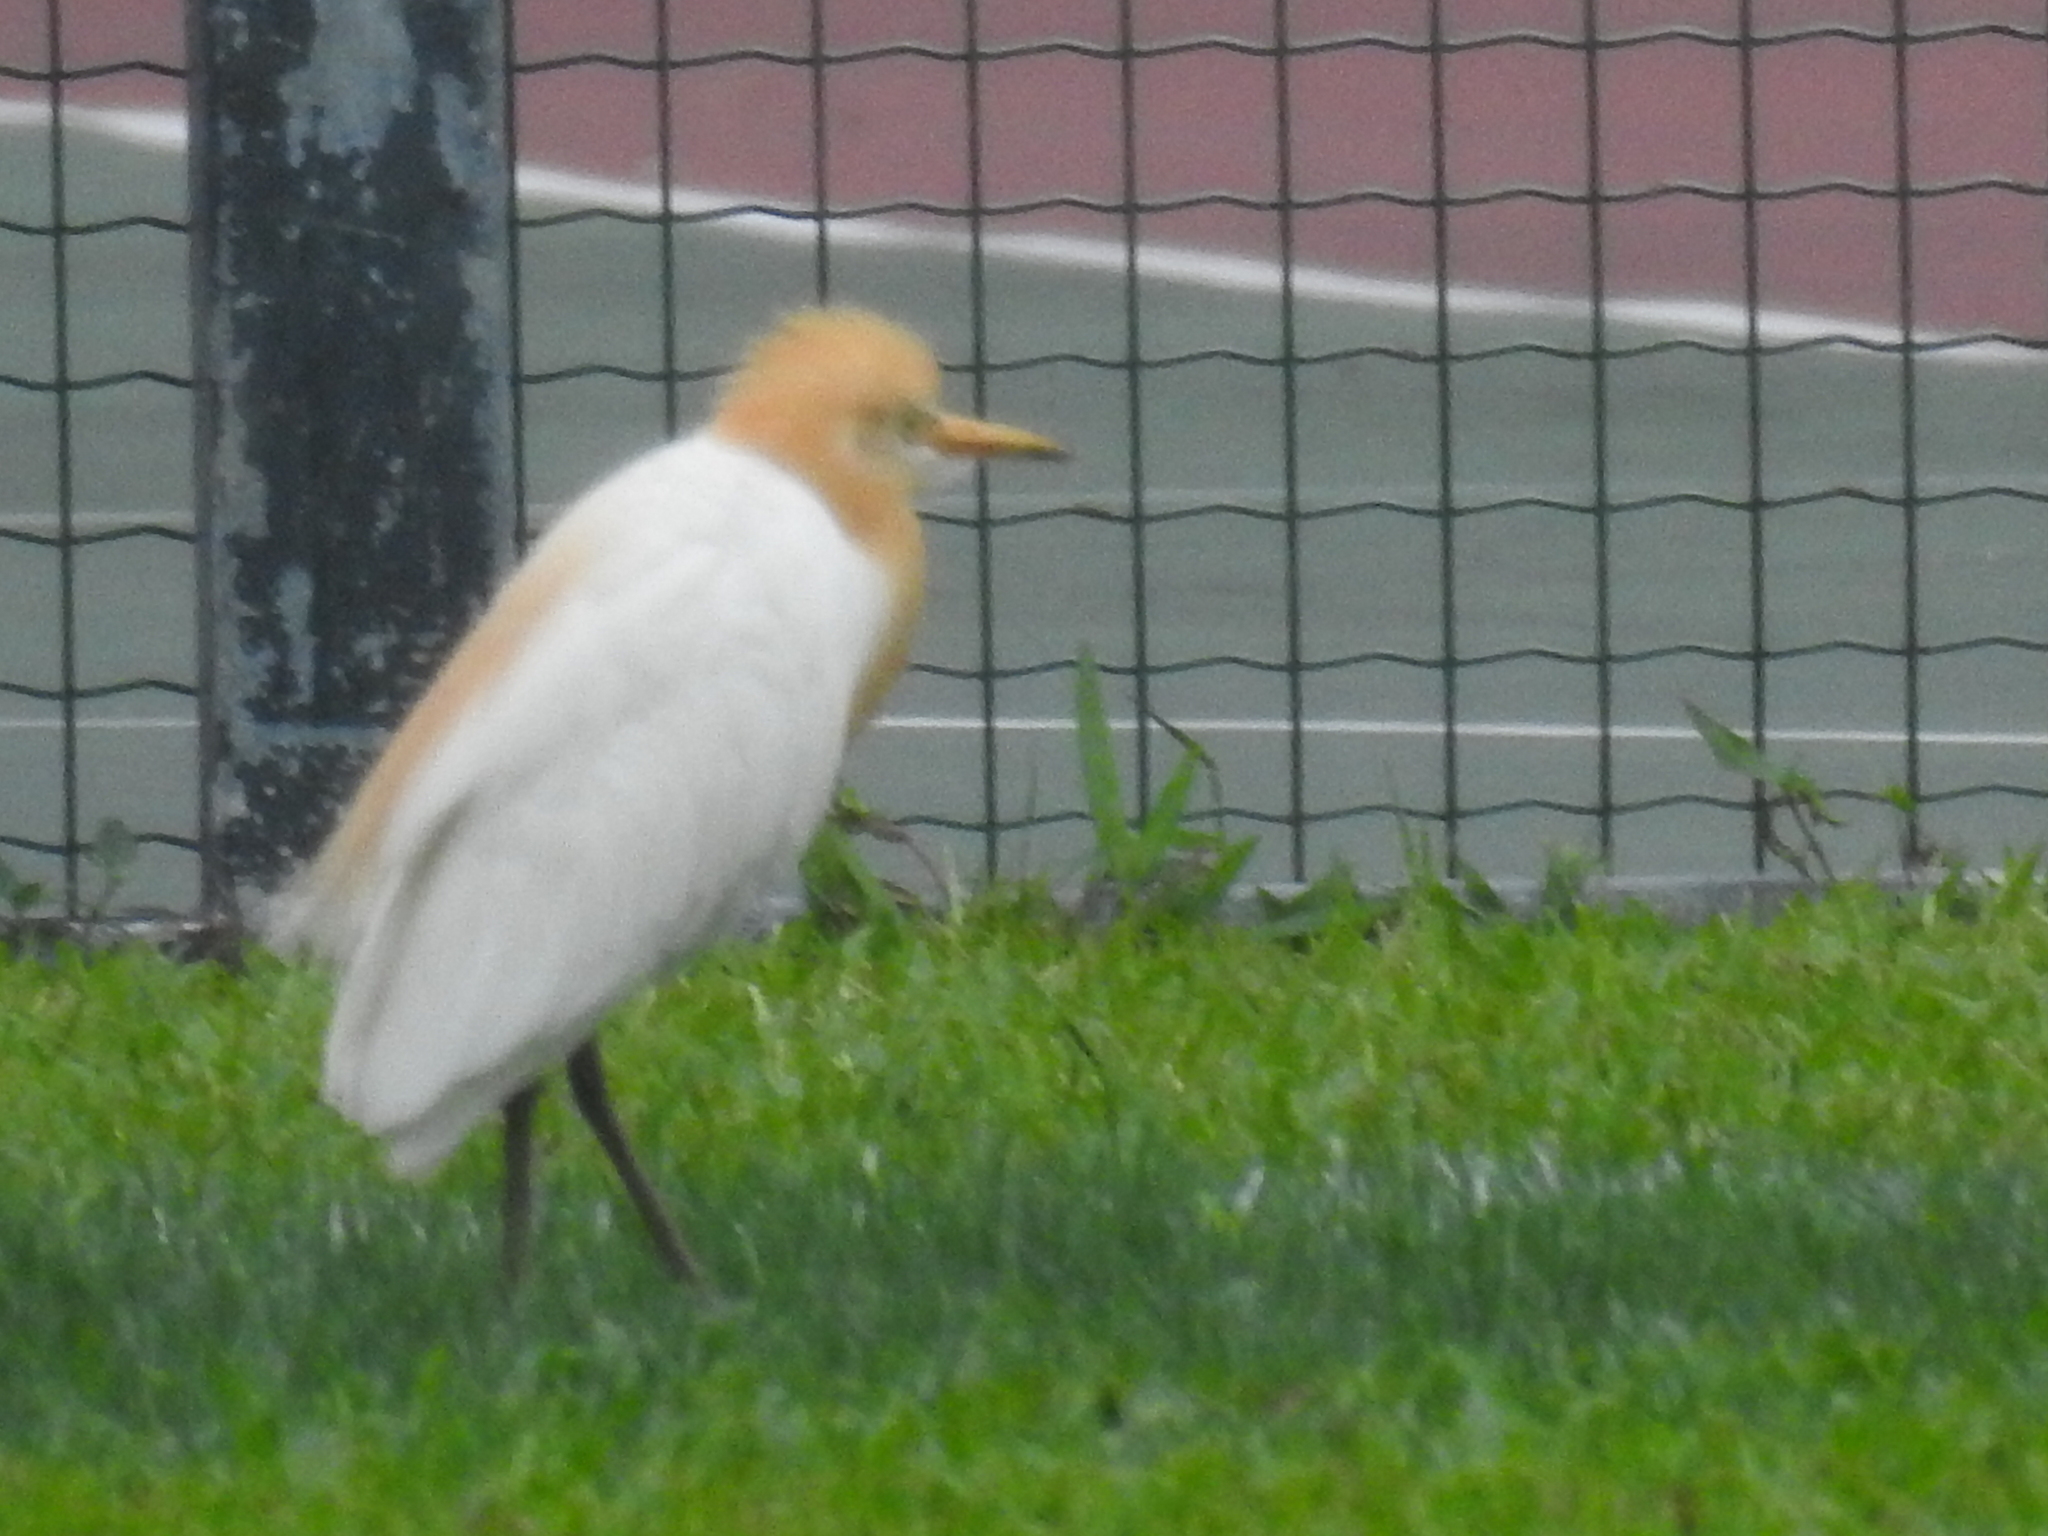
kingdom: Animalia
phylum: Chordata
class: Aves
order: Pelecaniformes
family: Ardeidae
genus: Bubulcus
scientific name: Bubulcus coromandus
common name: Eastern cattle egret
